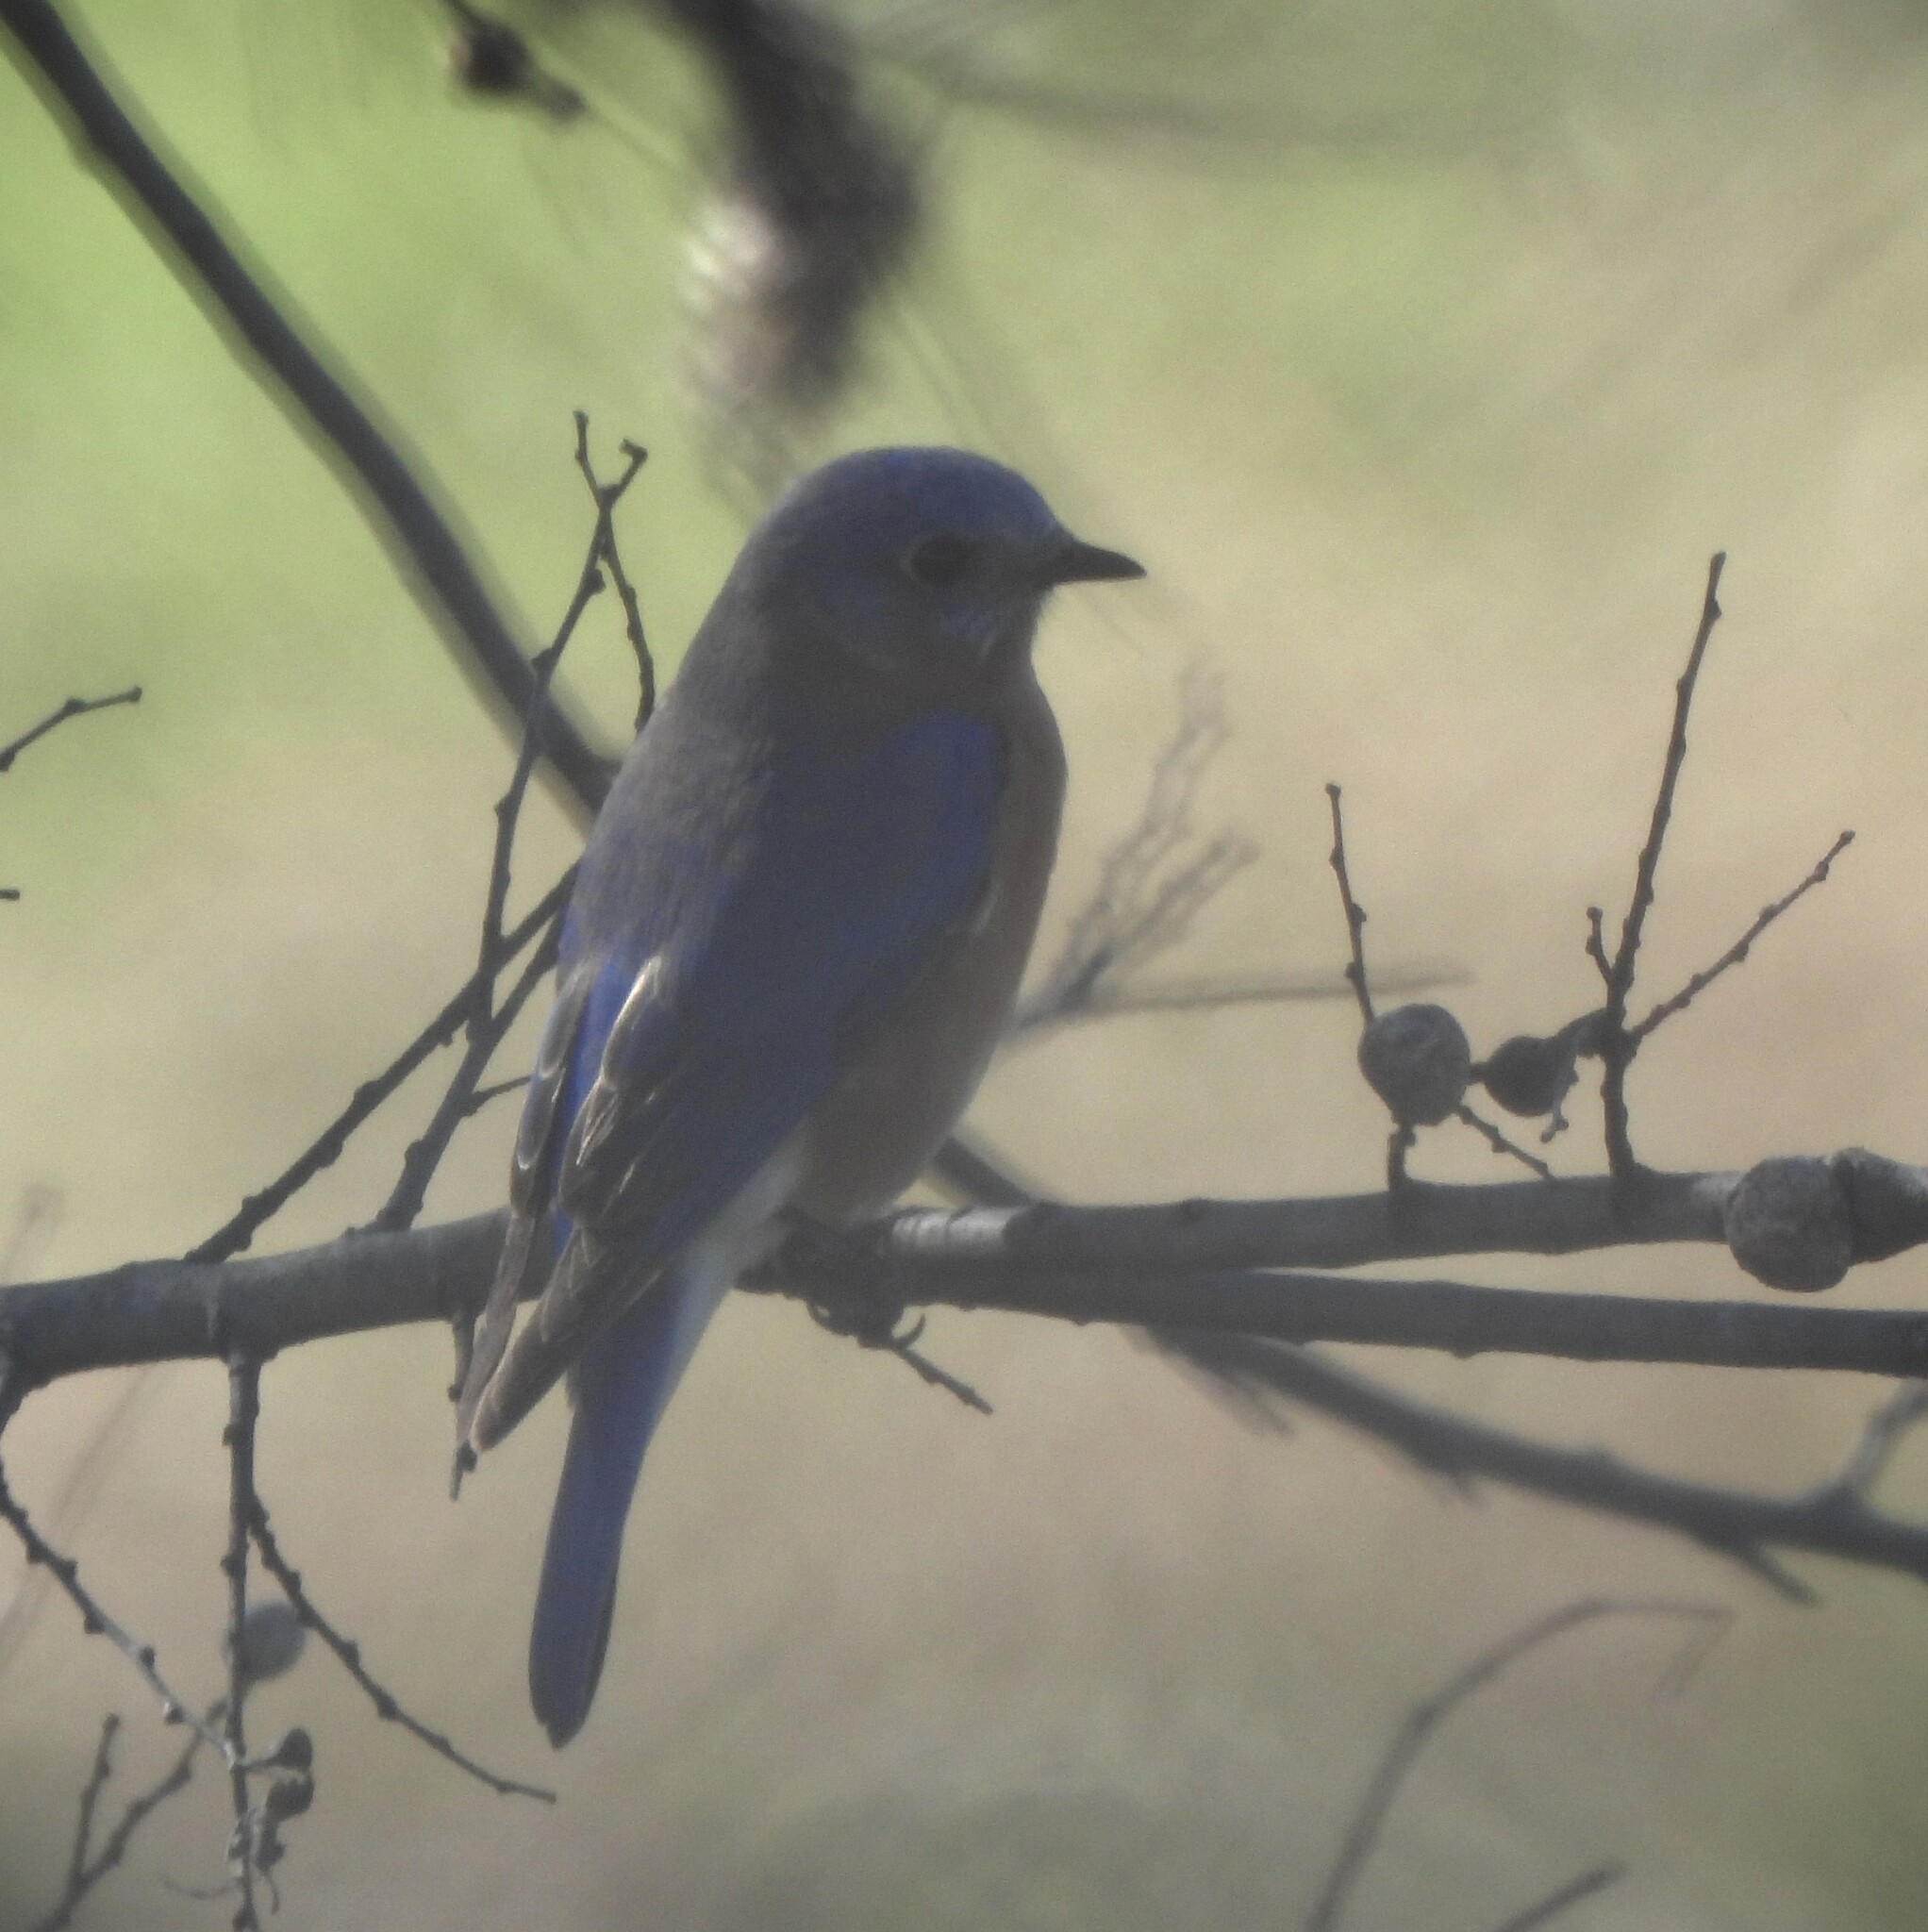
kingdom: Animalia
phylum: Chordata
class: Aves
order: Passeriformes
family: Turdidae
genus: Sialia
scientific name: Sialia sialis
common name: Eastern bluebird
